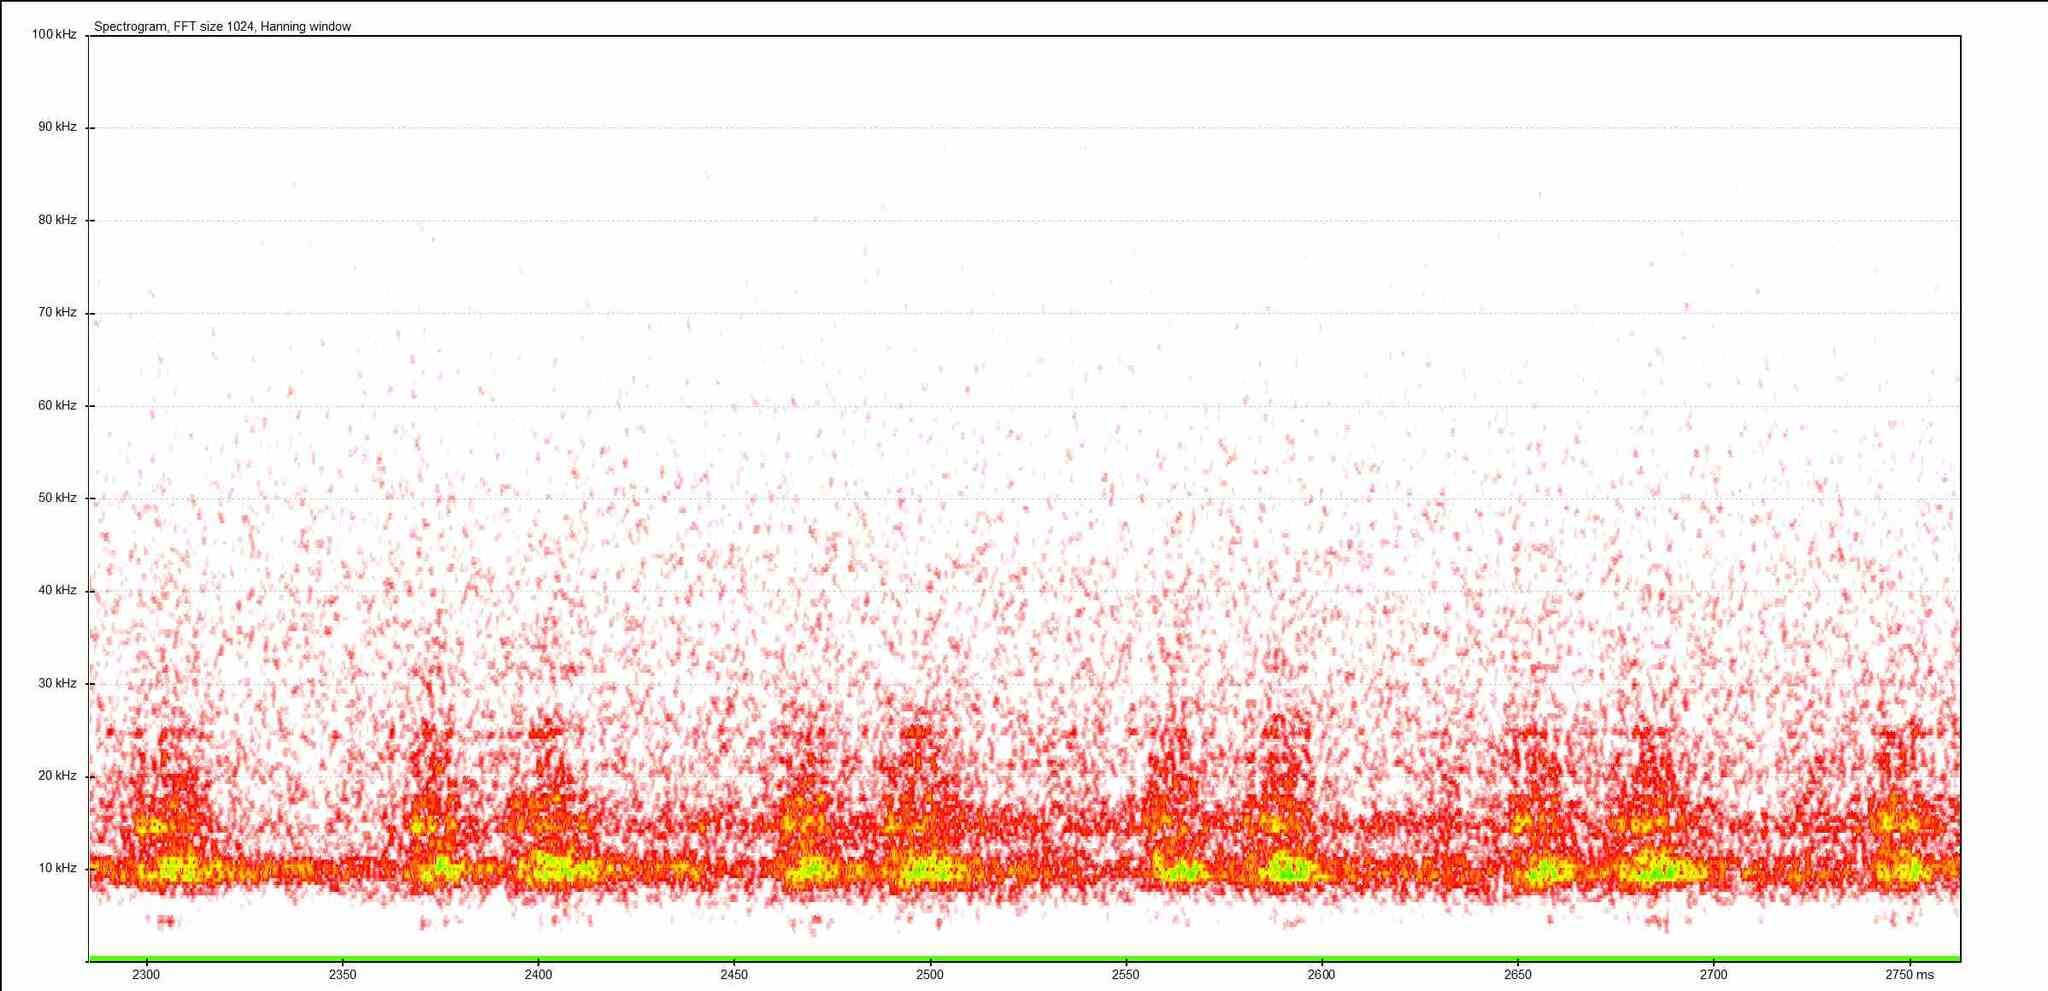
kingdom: Animalia
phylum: Arthropoda
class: Insecta
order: Orthoptera
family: Tettigoniidae
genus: Tettigonia
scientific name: Tettigonia viridissima
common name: Great green bush-cricket
